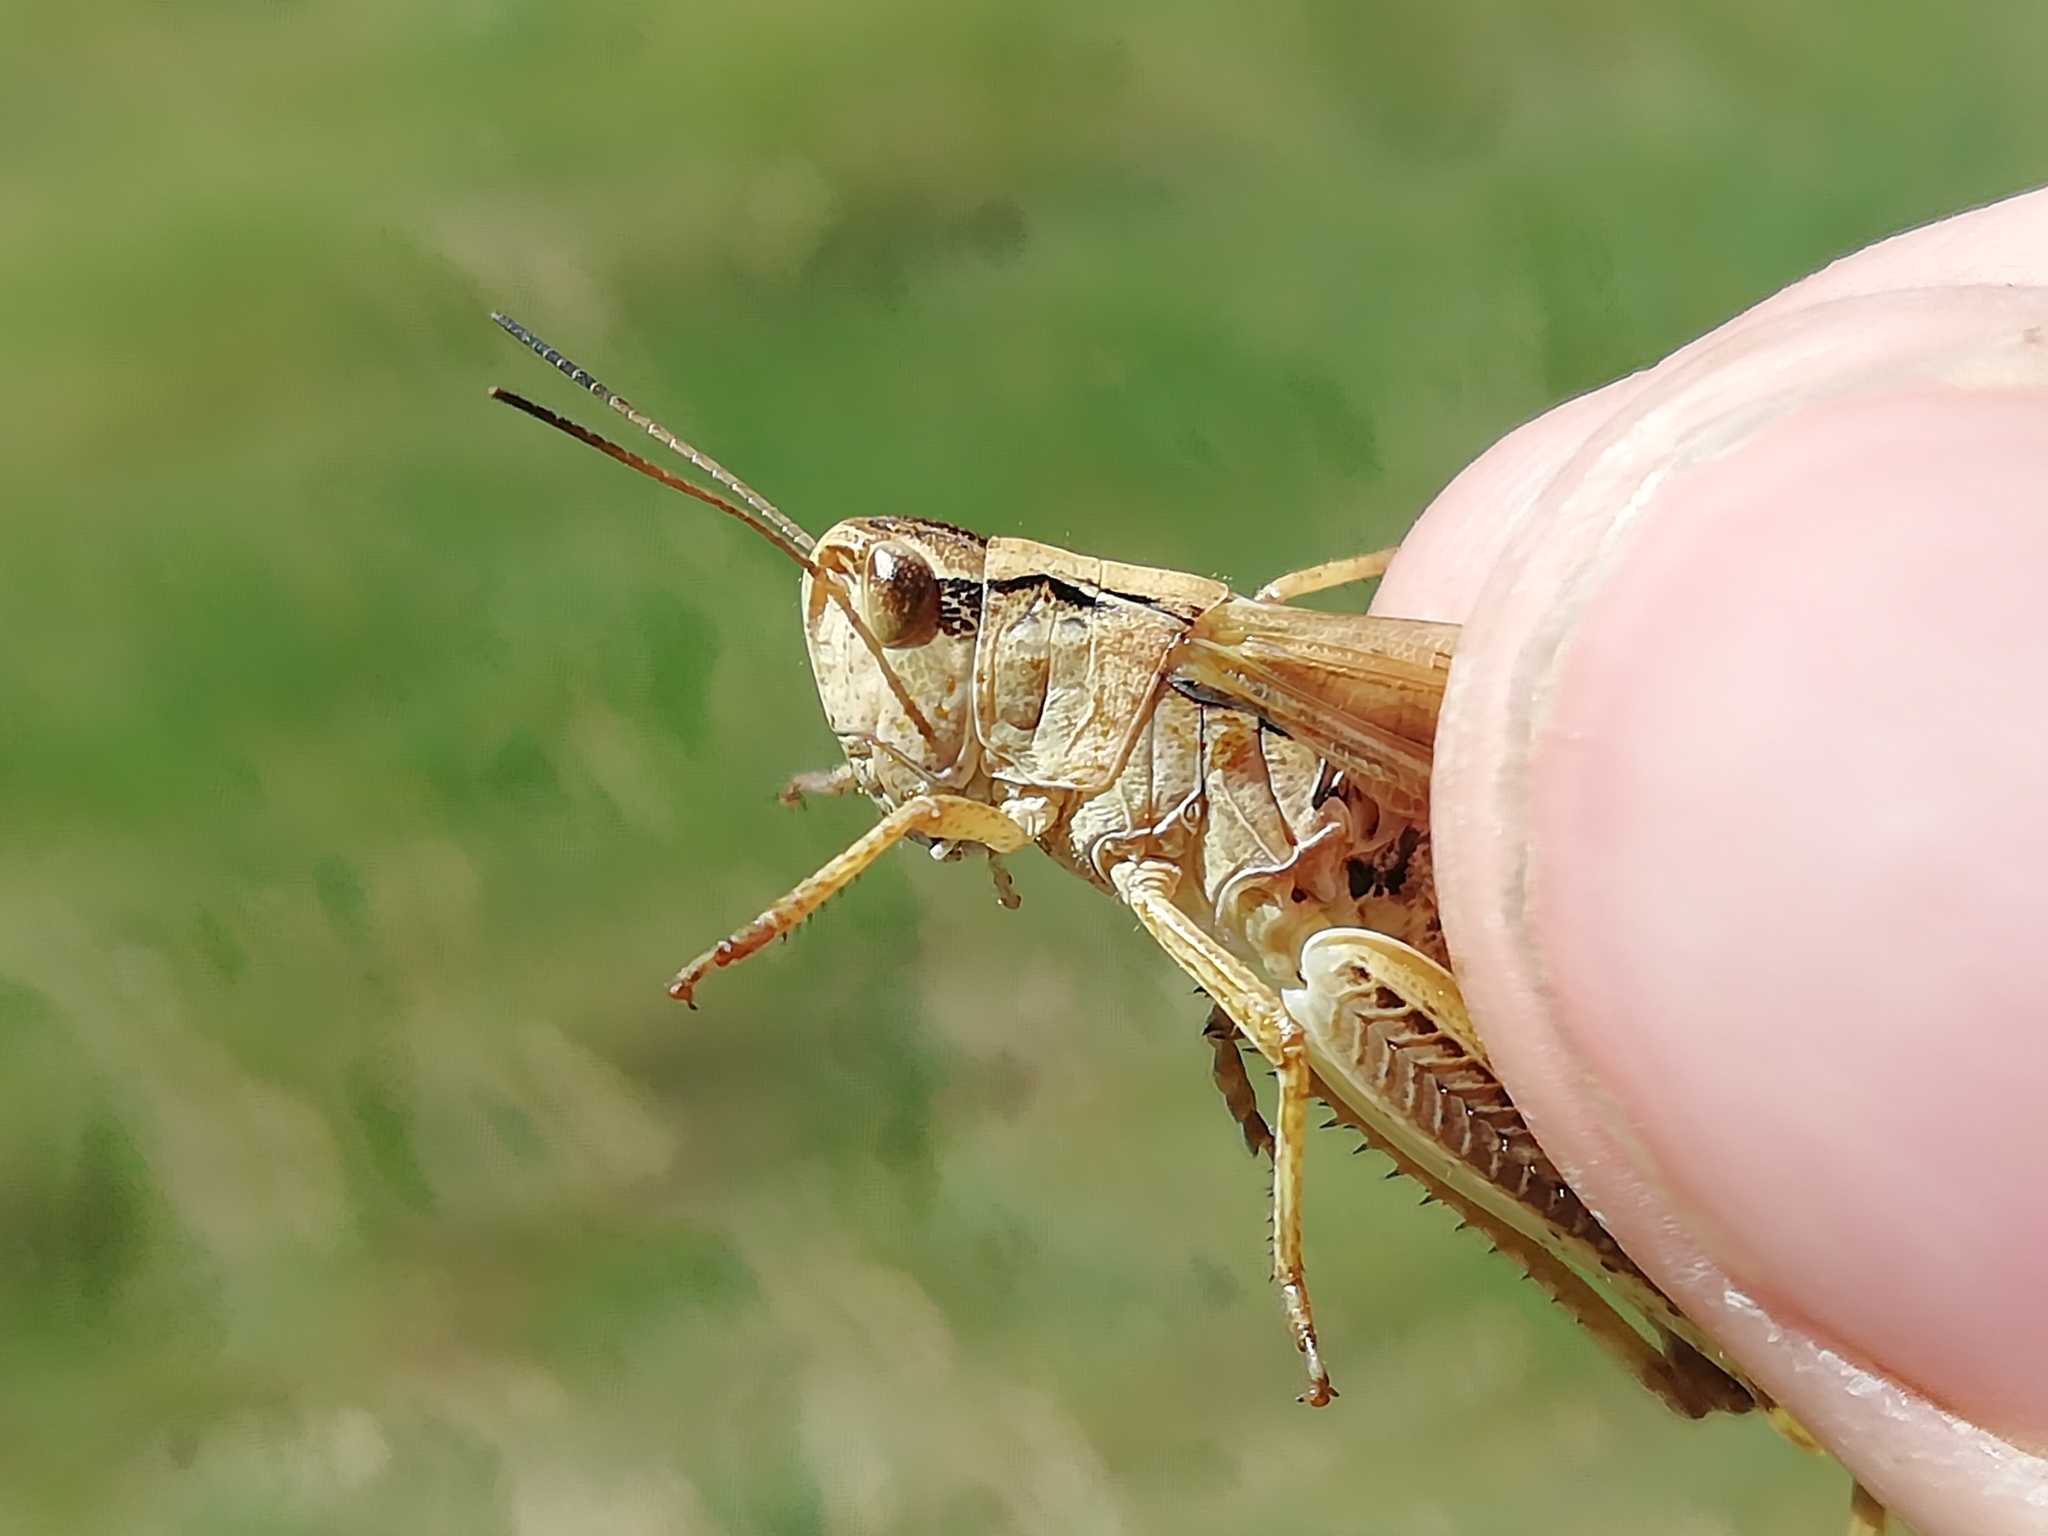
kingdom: Animalia
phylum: Arthropoda
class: Insecta
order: Orthoptera
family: Acrididae
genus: Stauroderus
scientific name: Stauroderus scalaris
